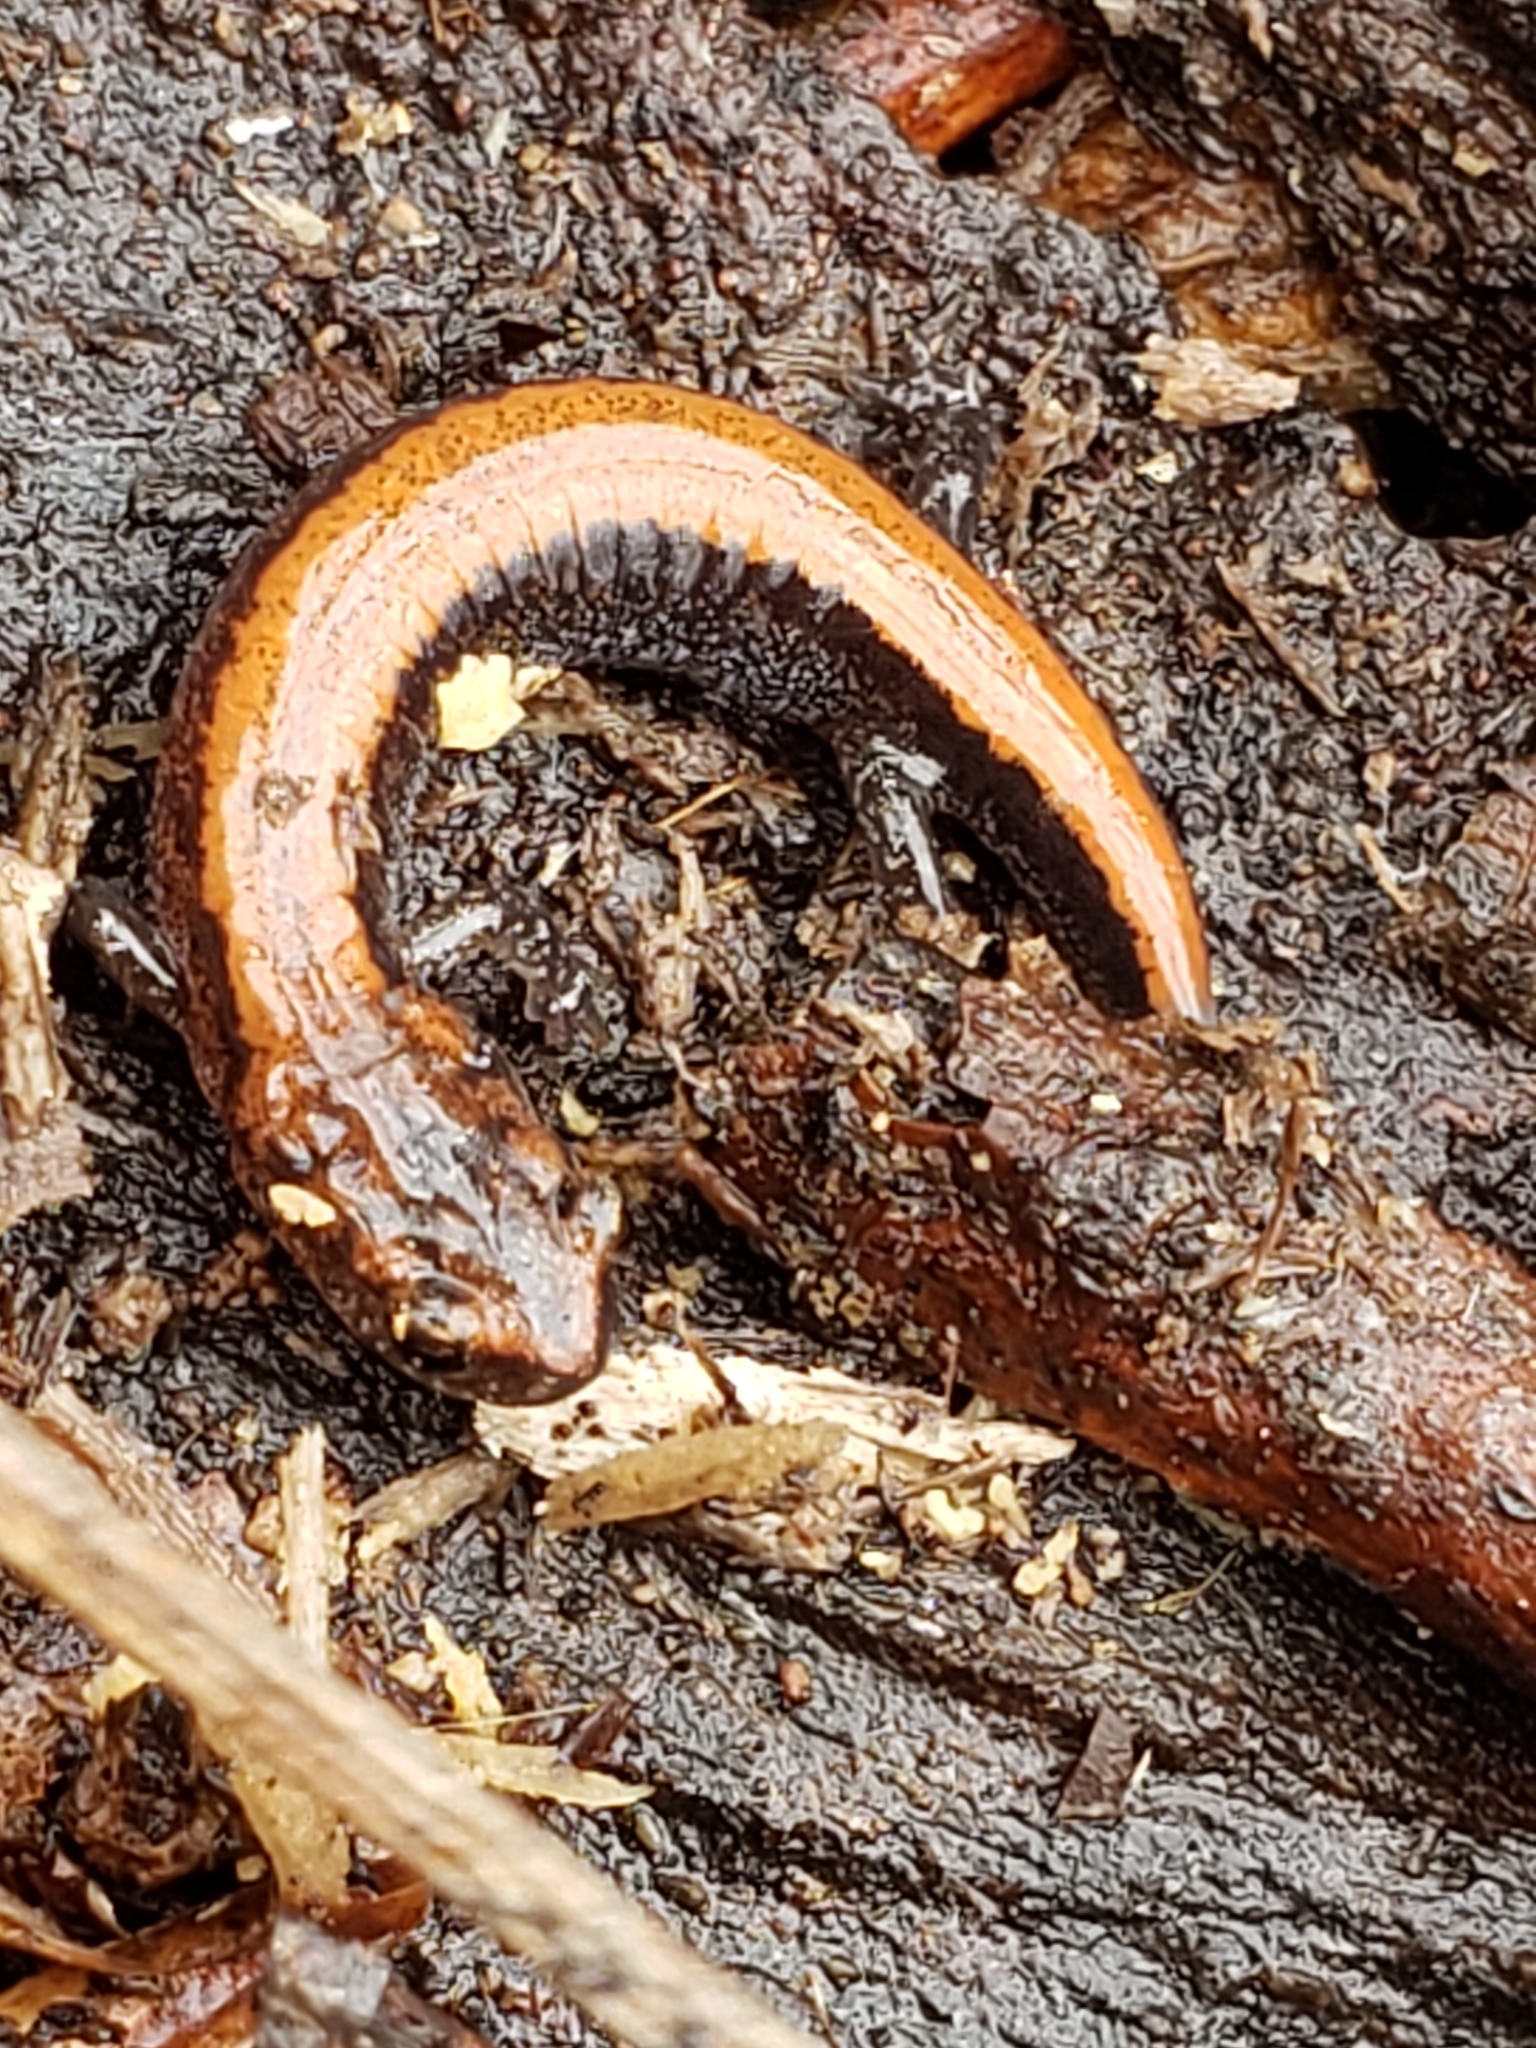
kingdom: Animalia
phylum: Chordata
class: Amphibia
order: Caudata
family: Plethodontidae
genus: Plethodon
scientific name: Plethodon cinereus
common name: Redback salamander
